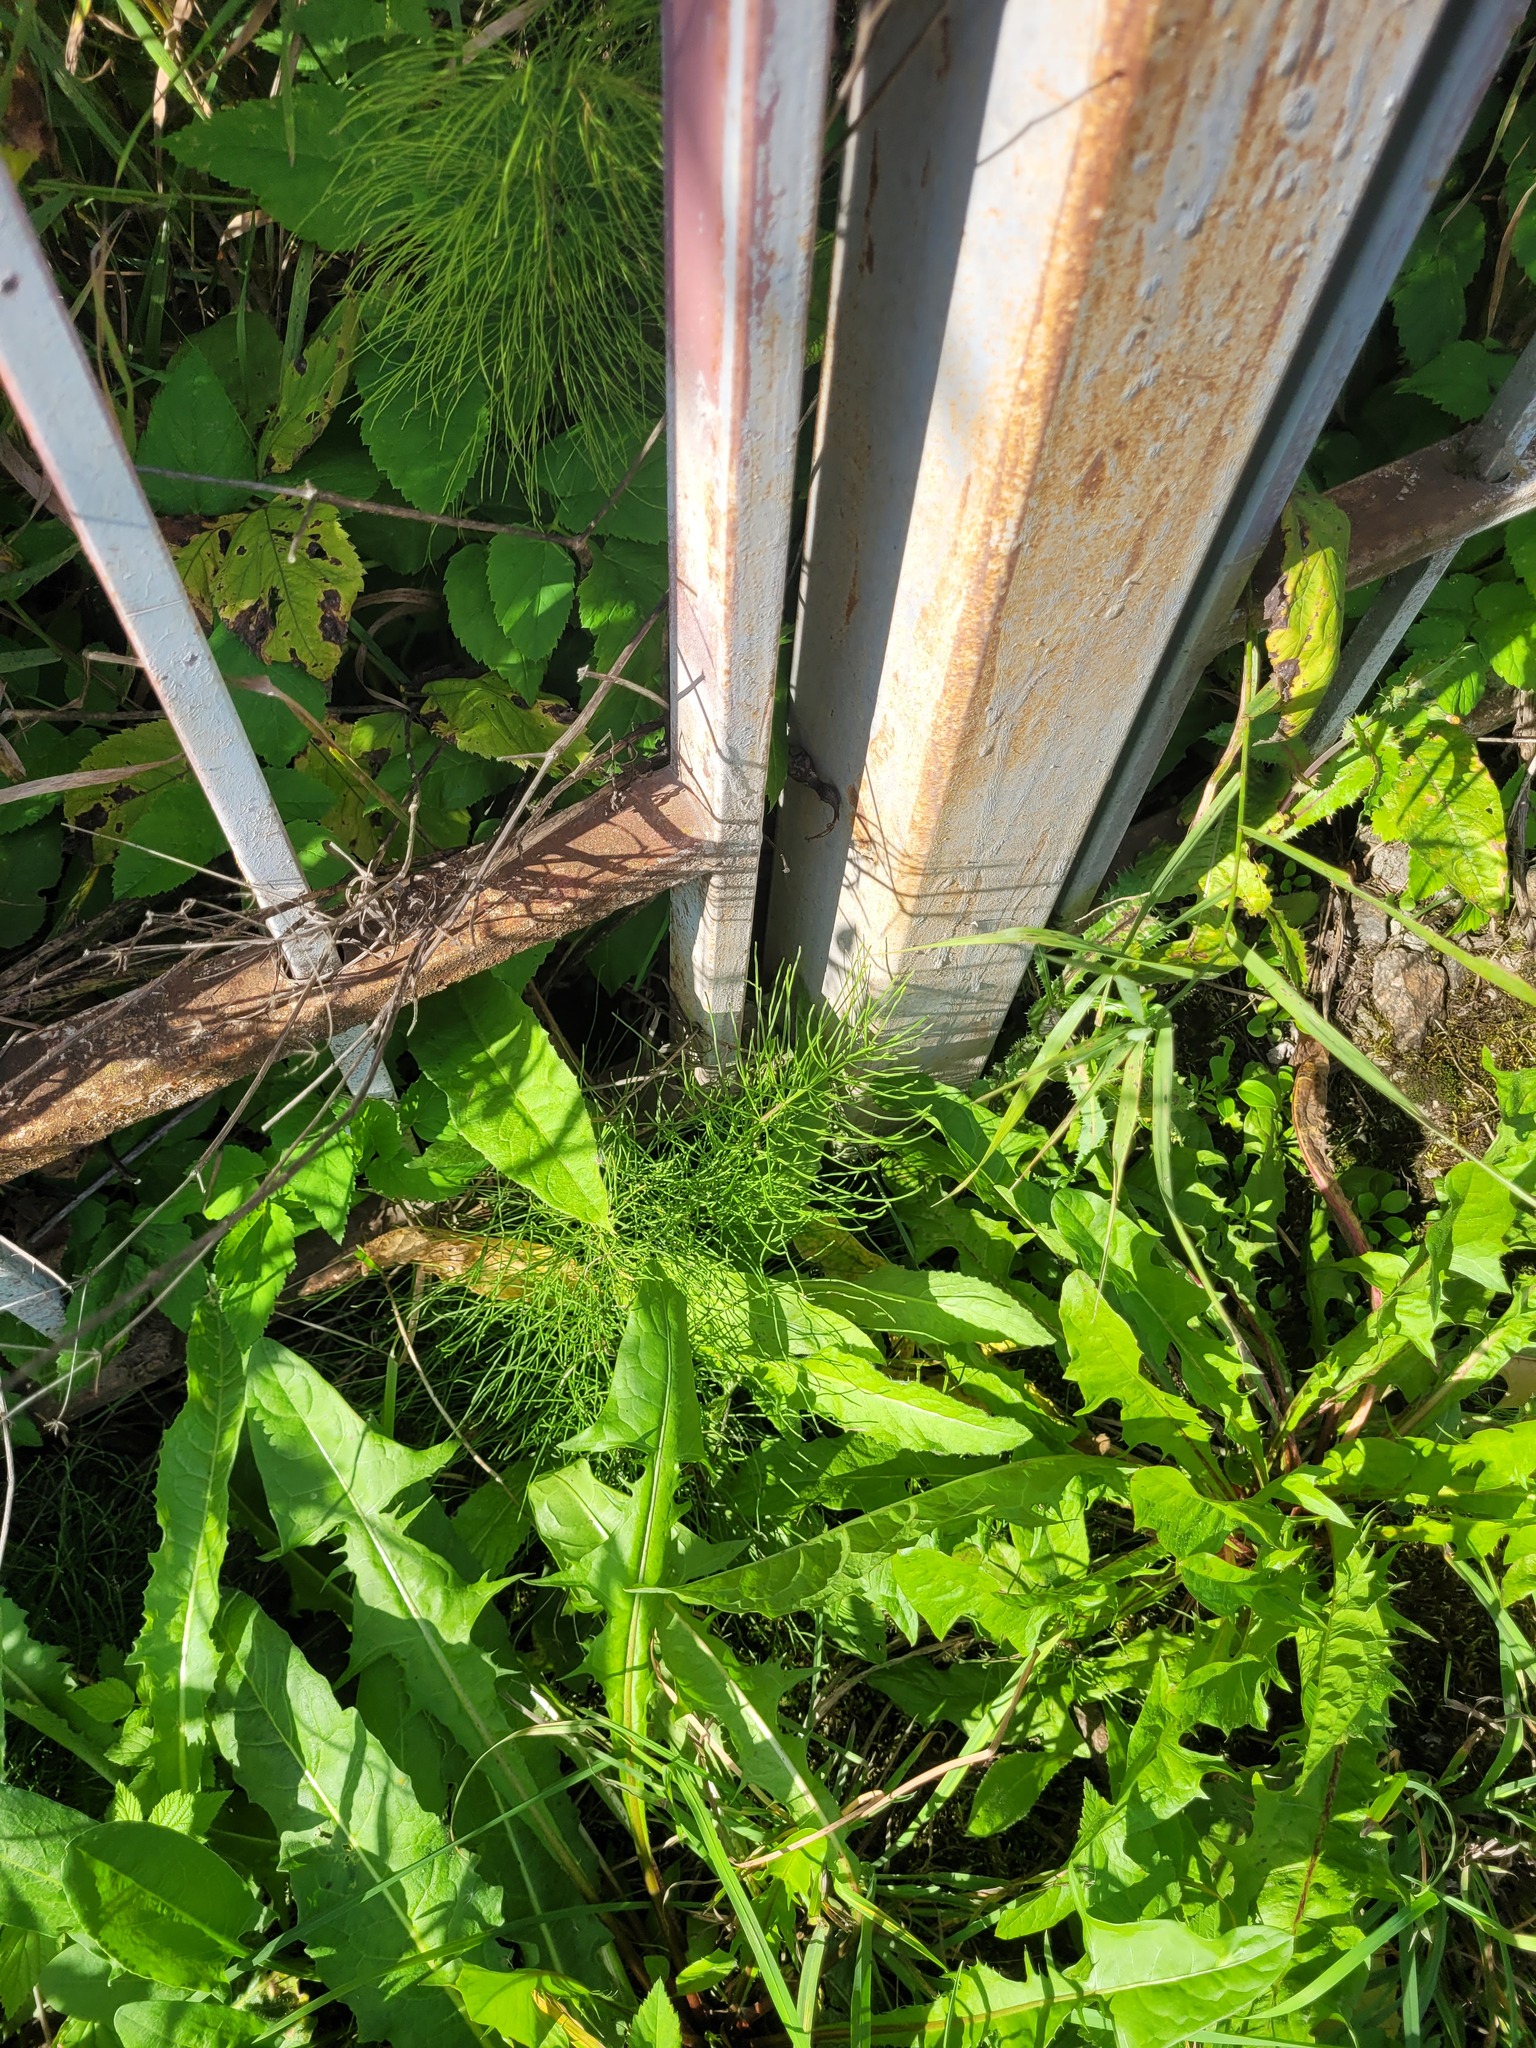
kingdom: Plantae
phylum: Tracheophyta
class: Polypodiopsida
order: Equisetales
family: Equisetaceae
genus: Equisetum
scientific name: Equisetum arvense
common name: Field horsetail
